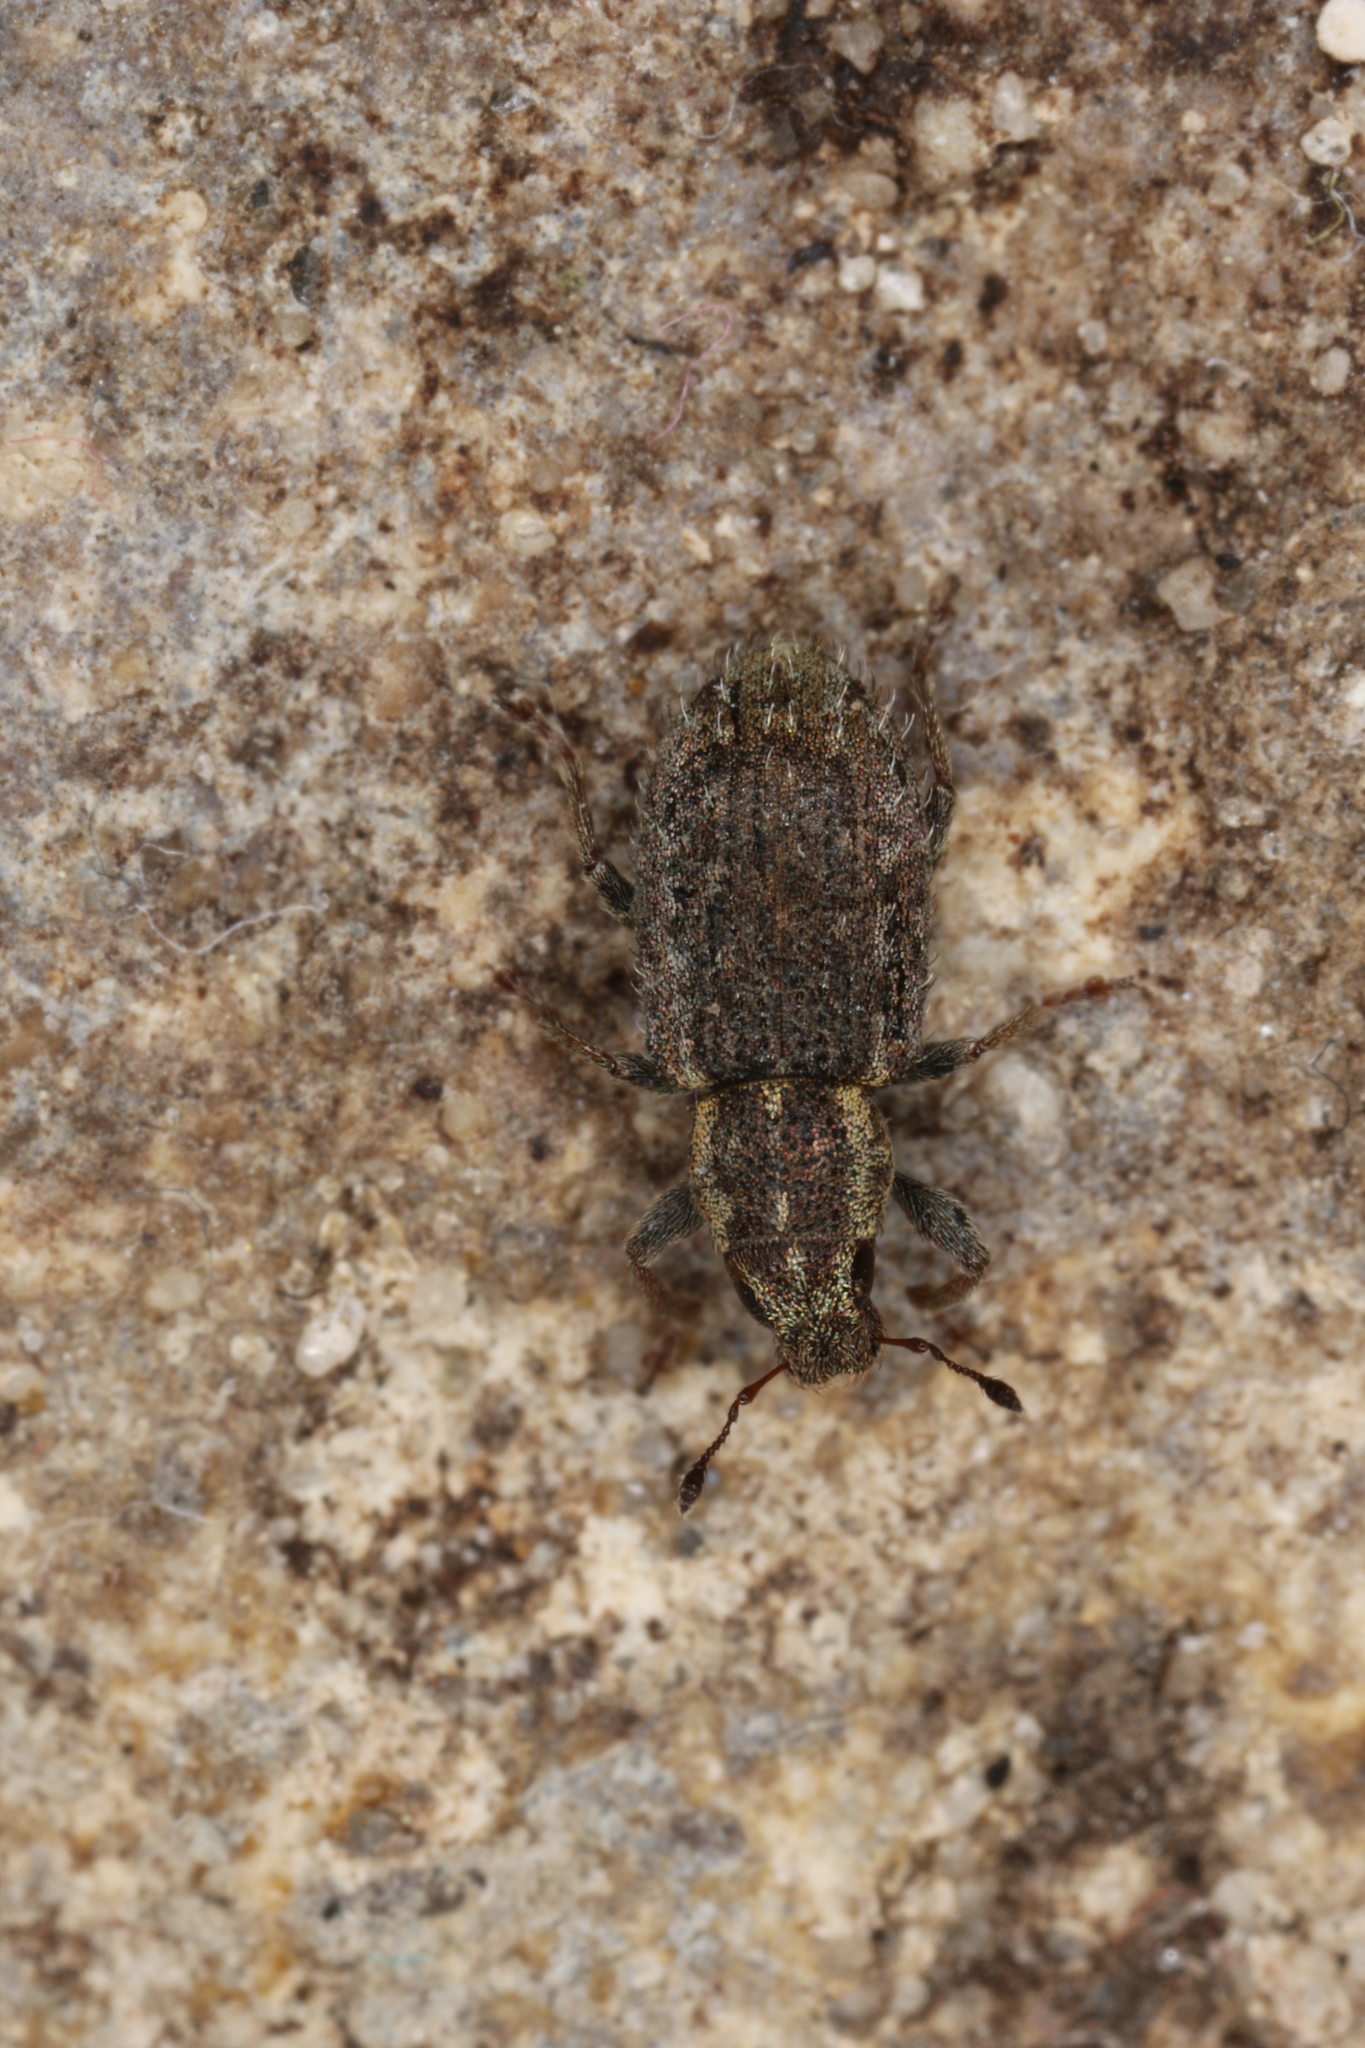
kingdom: Animalia
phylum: Arthropoda
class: Insecta
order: Coleoptera
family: Curculionidae
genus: Sitona
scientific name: Sitona hispidulus
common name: Clover weevil
